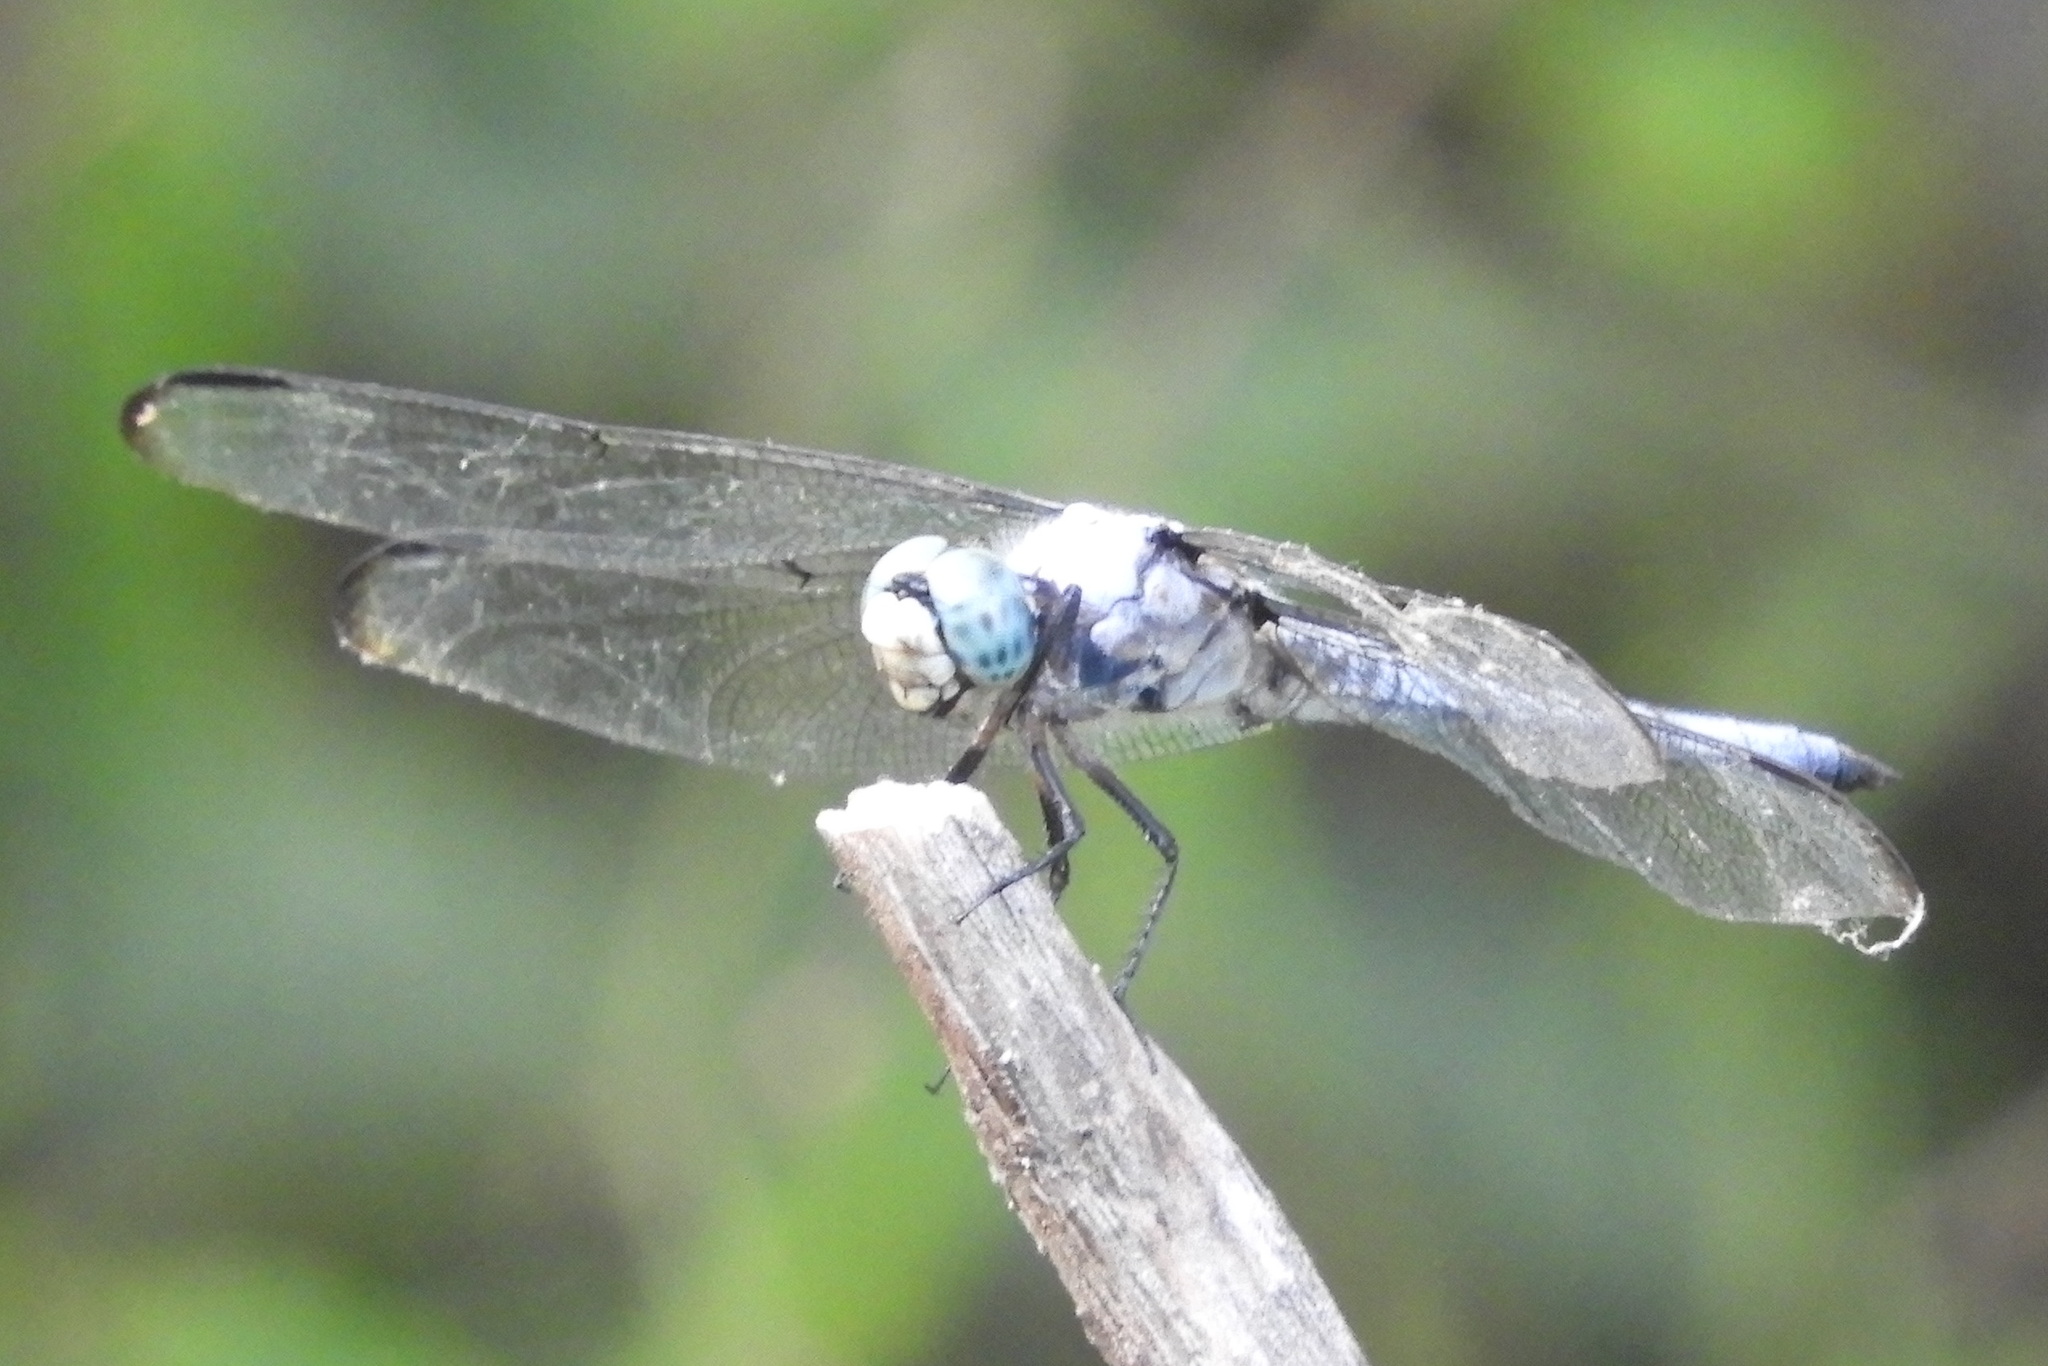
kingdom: Animalia
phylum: Arthropoda
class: Insecta
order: Odonata
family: Libellulidae
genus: Libellula
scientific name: Libellula vibrans
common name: Great blue skimmer
